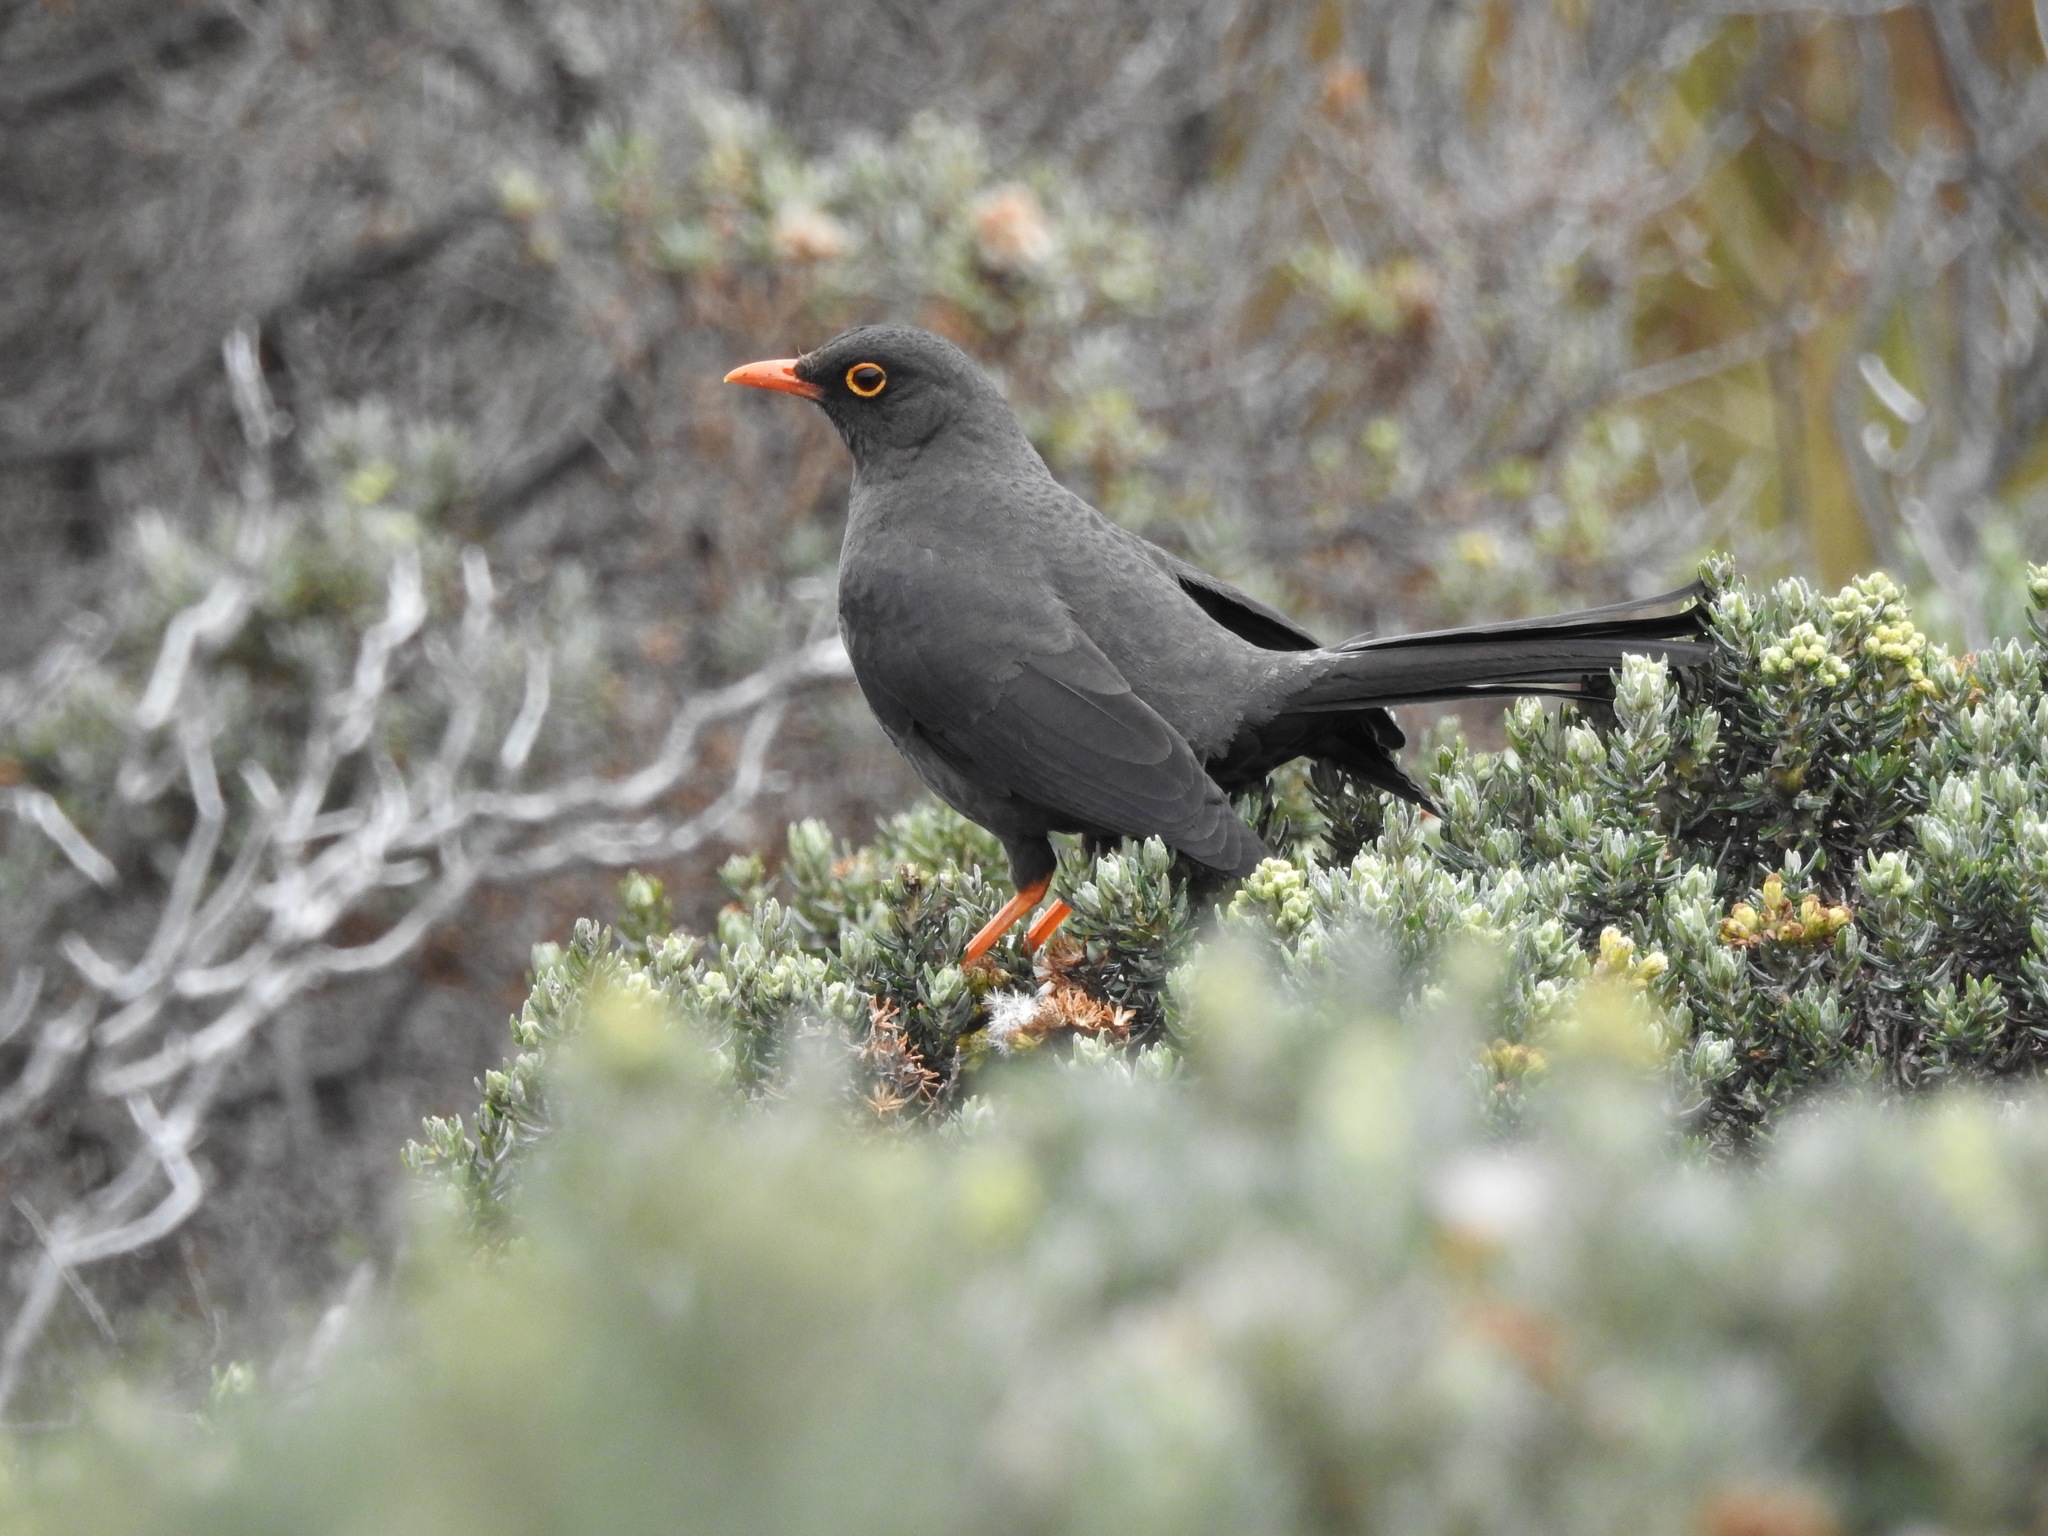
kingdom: Animalia
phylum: Chordata
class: Aves
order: Passeriformes
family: Turdidae
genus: Turdus
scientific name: Turdus fuscater
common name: Great thrush
